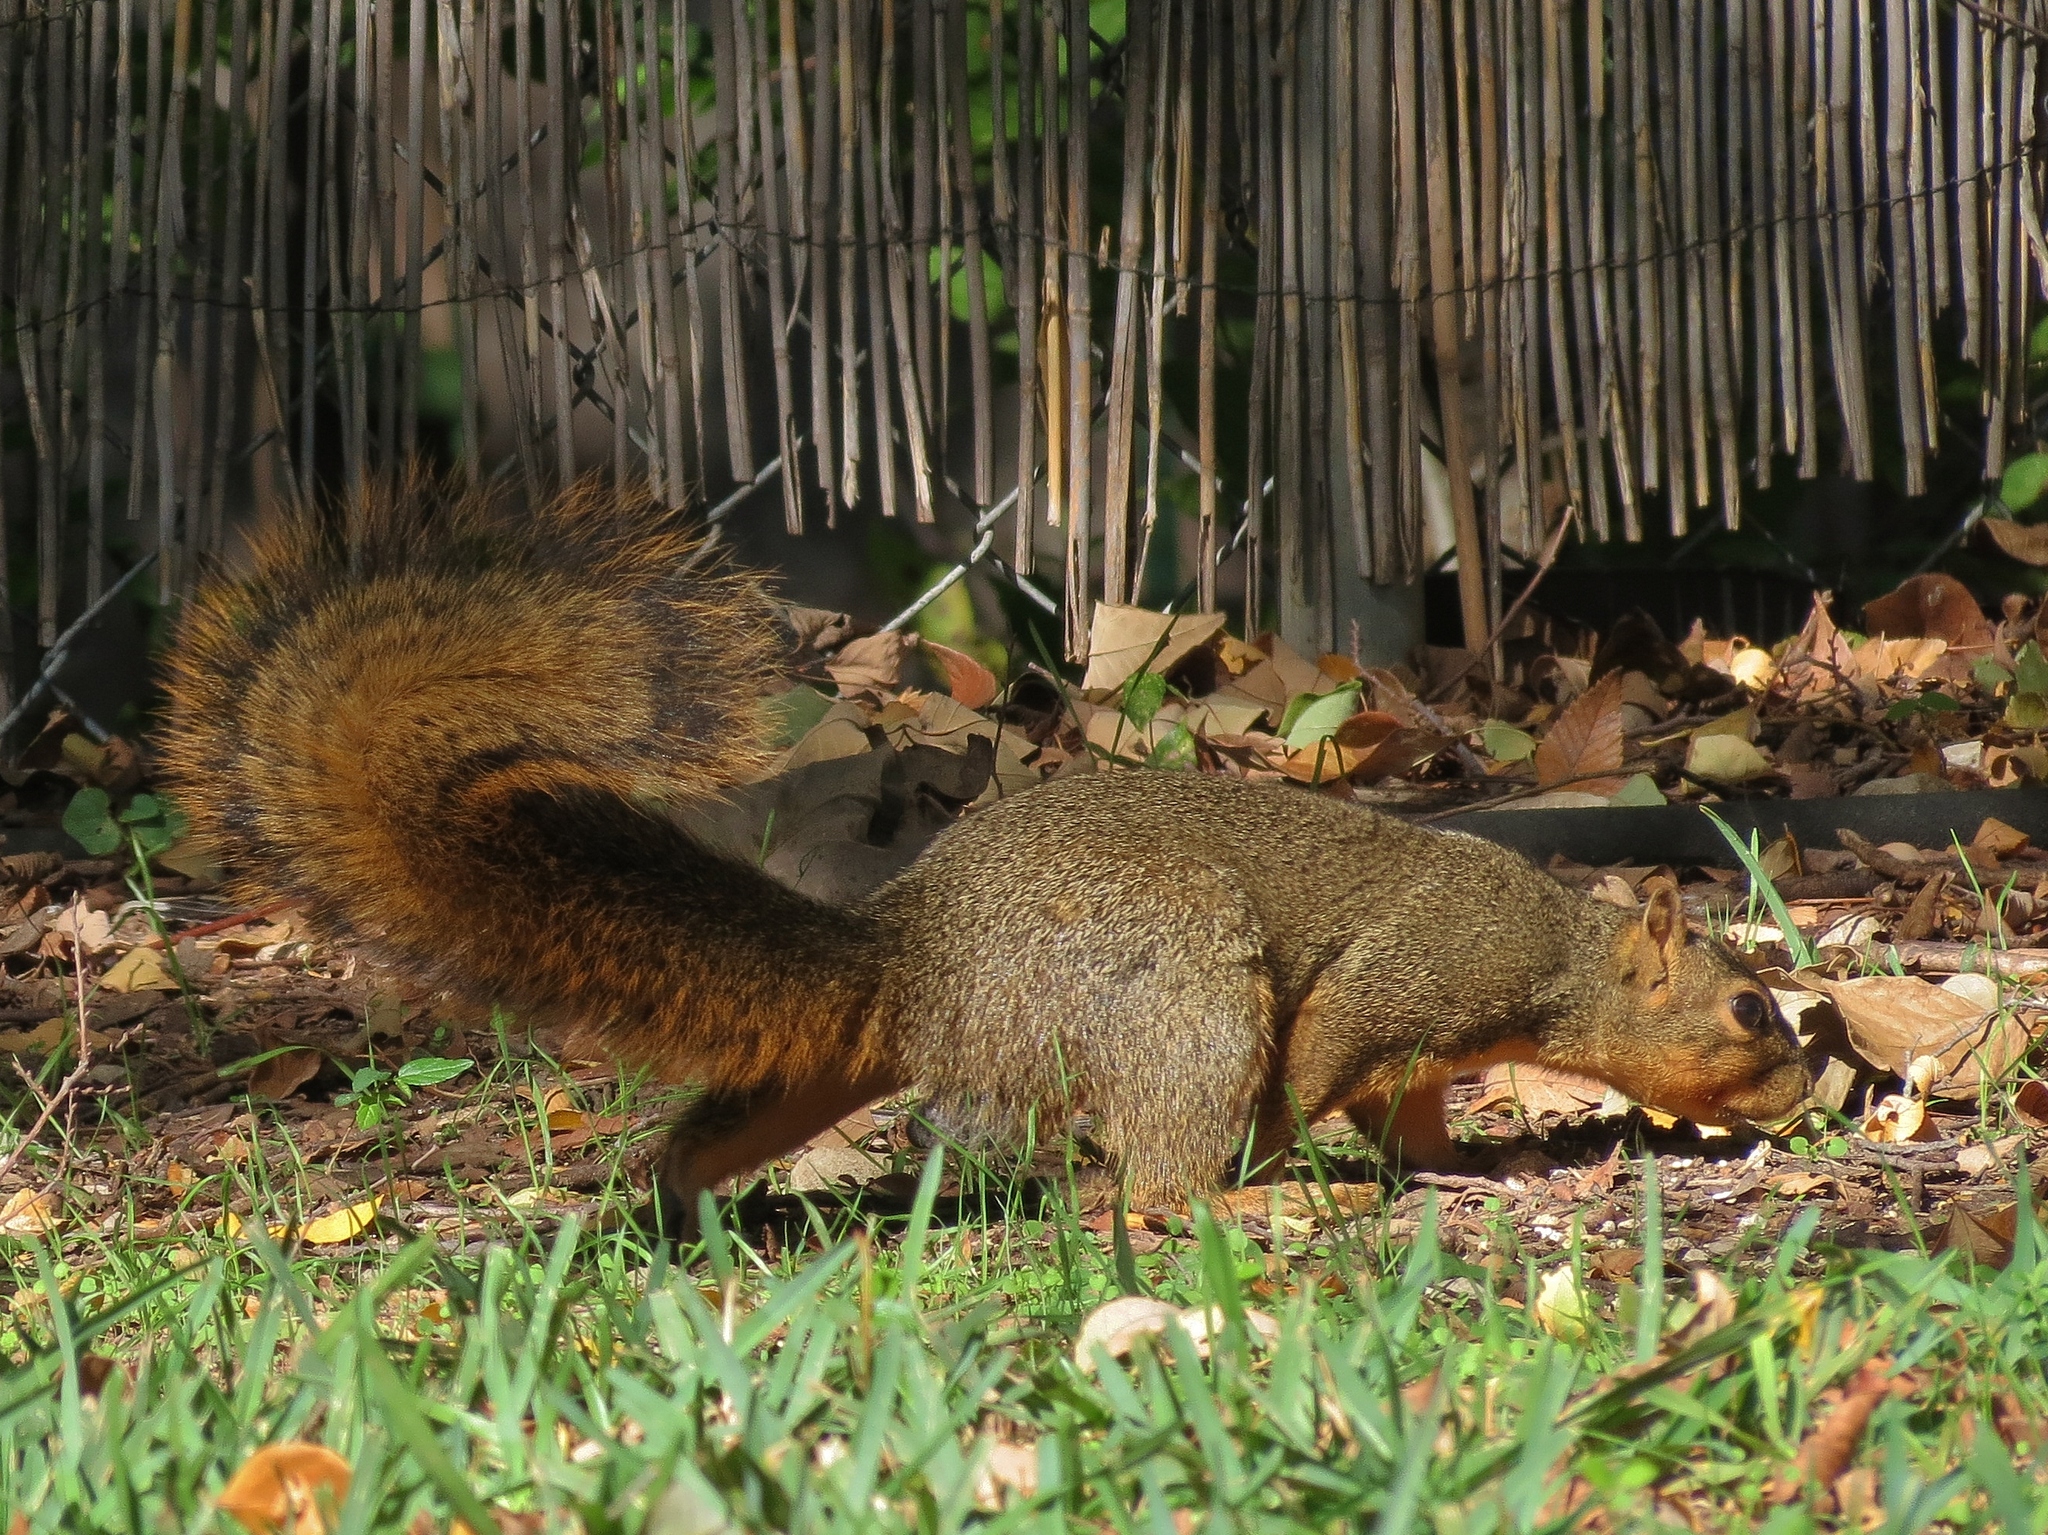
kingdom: Animalia
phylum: Chordata
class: Mammalia
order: Rodentia
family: Sciuridae
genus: Sciurus
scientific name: Sciurus niger
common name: Fox squirrel
